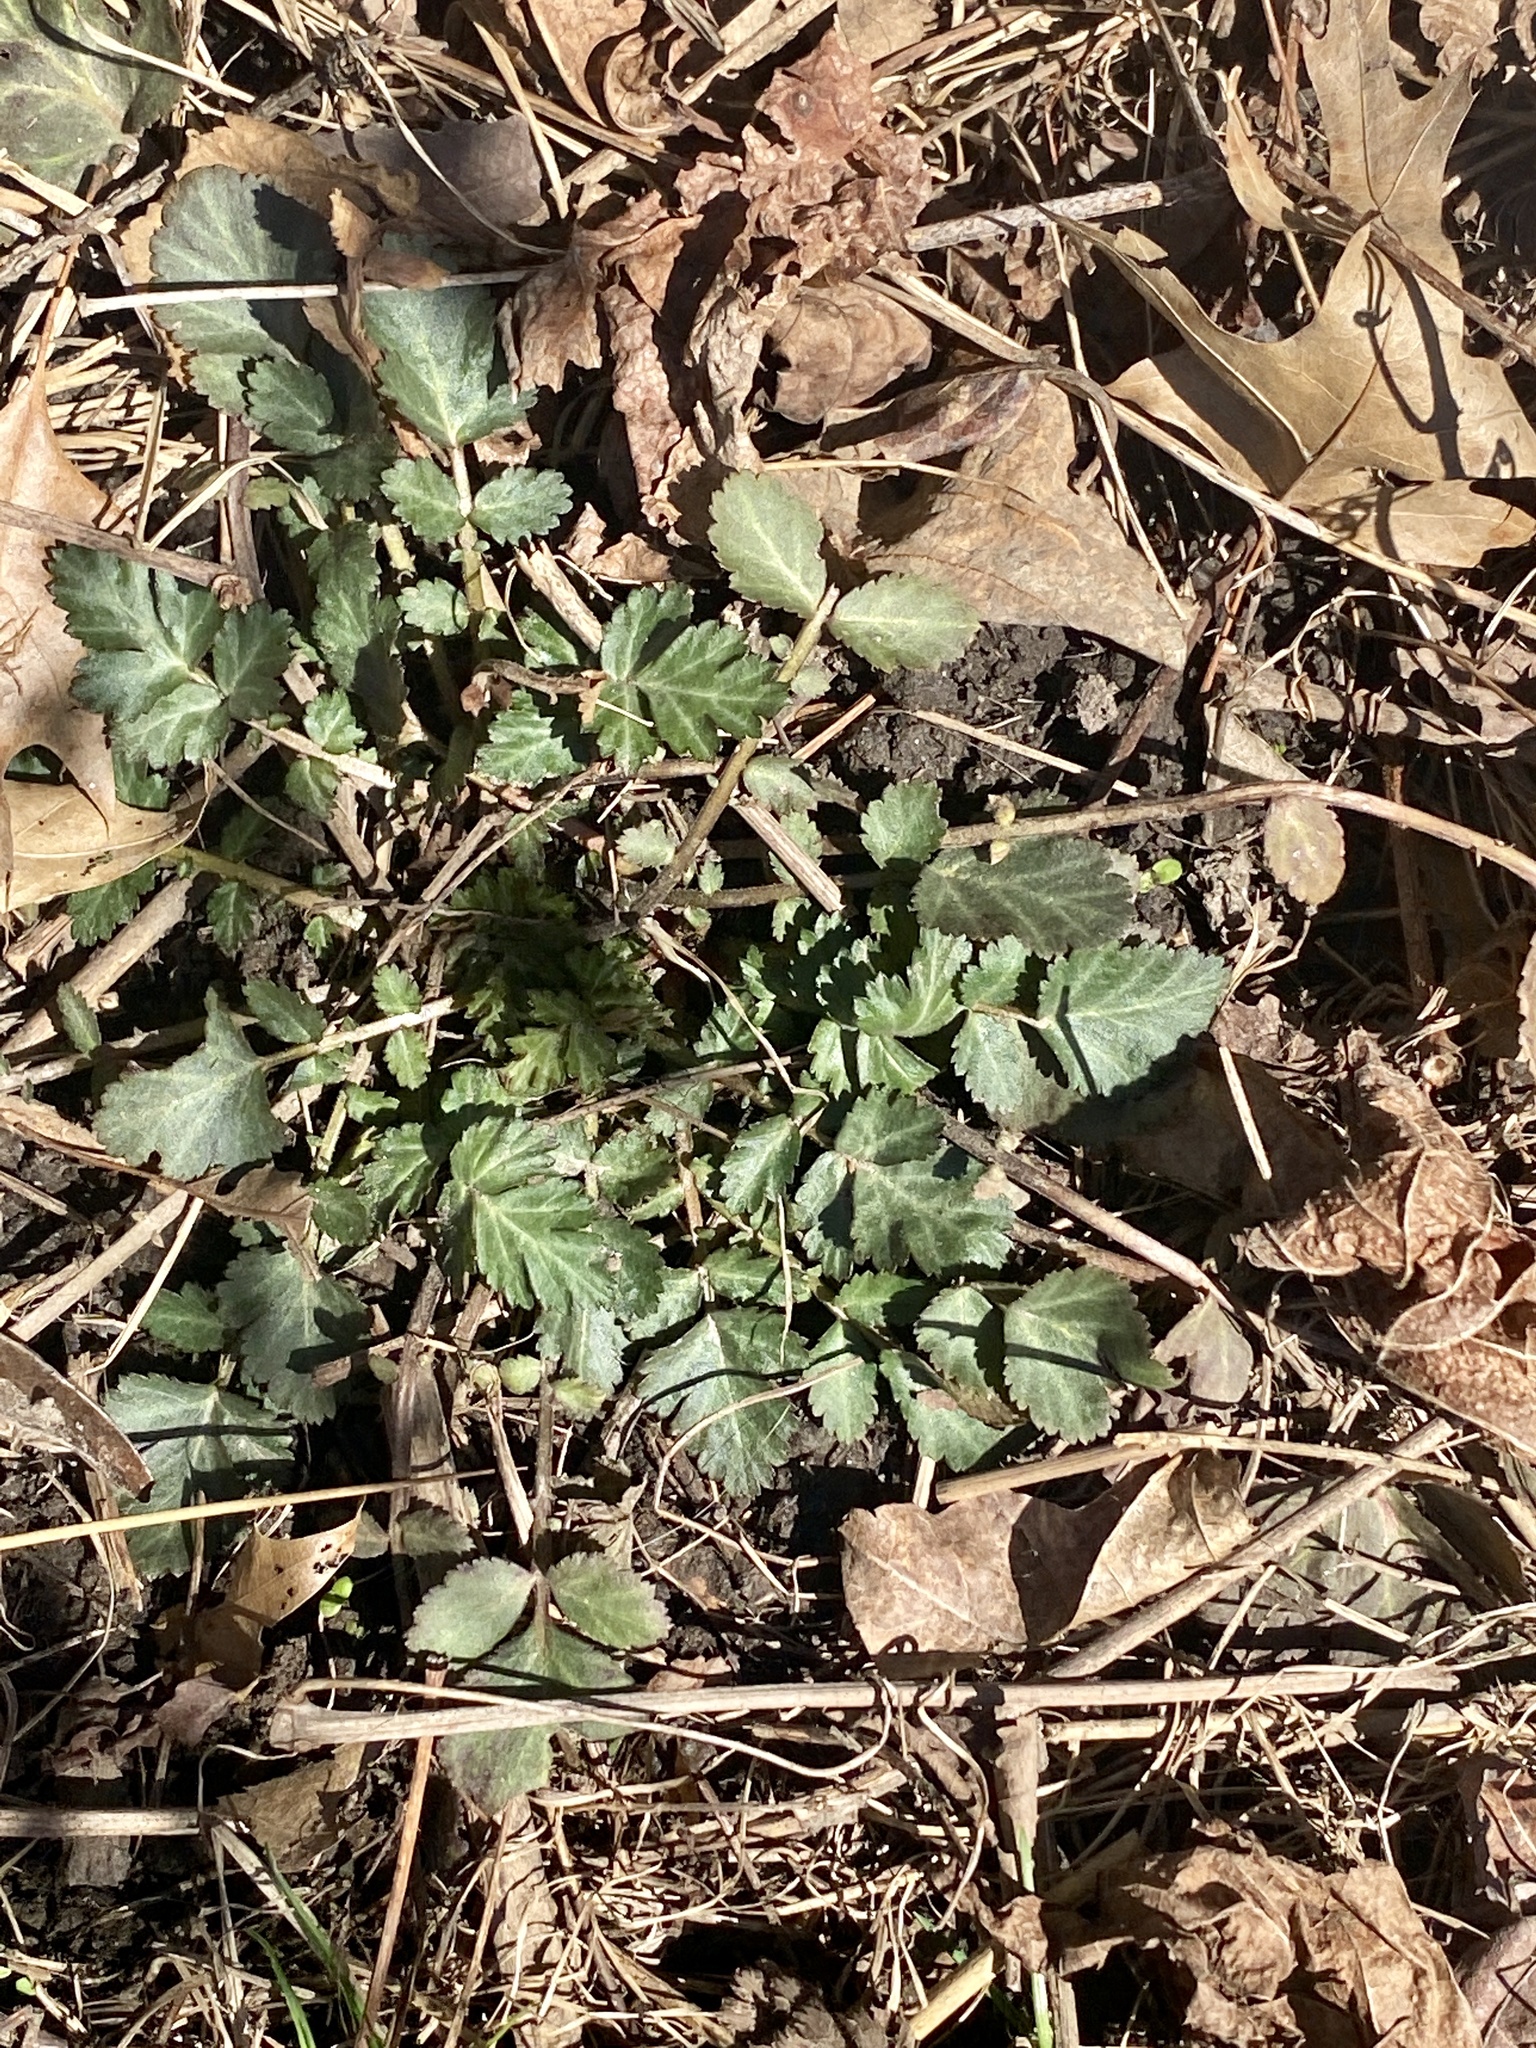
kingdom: Plantae
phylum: Tracheophyta
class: Magnoliopsida
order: Rosales
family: Rosaceae
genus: Geum
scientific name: Geum canadense
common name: White avens
